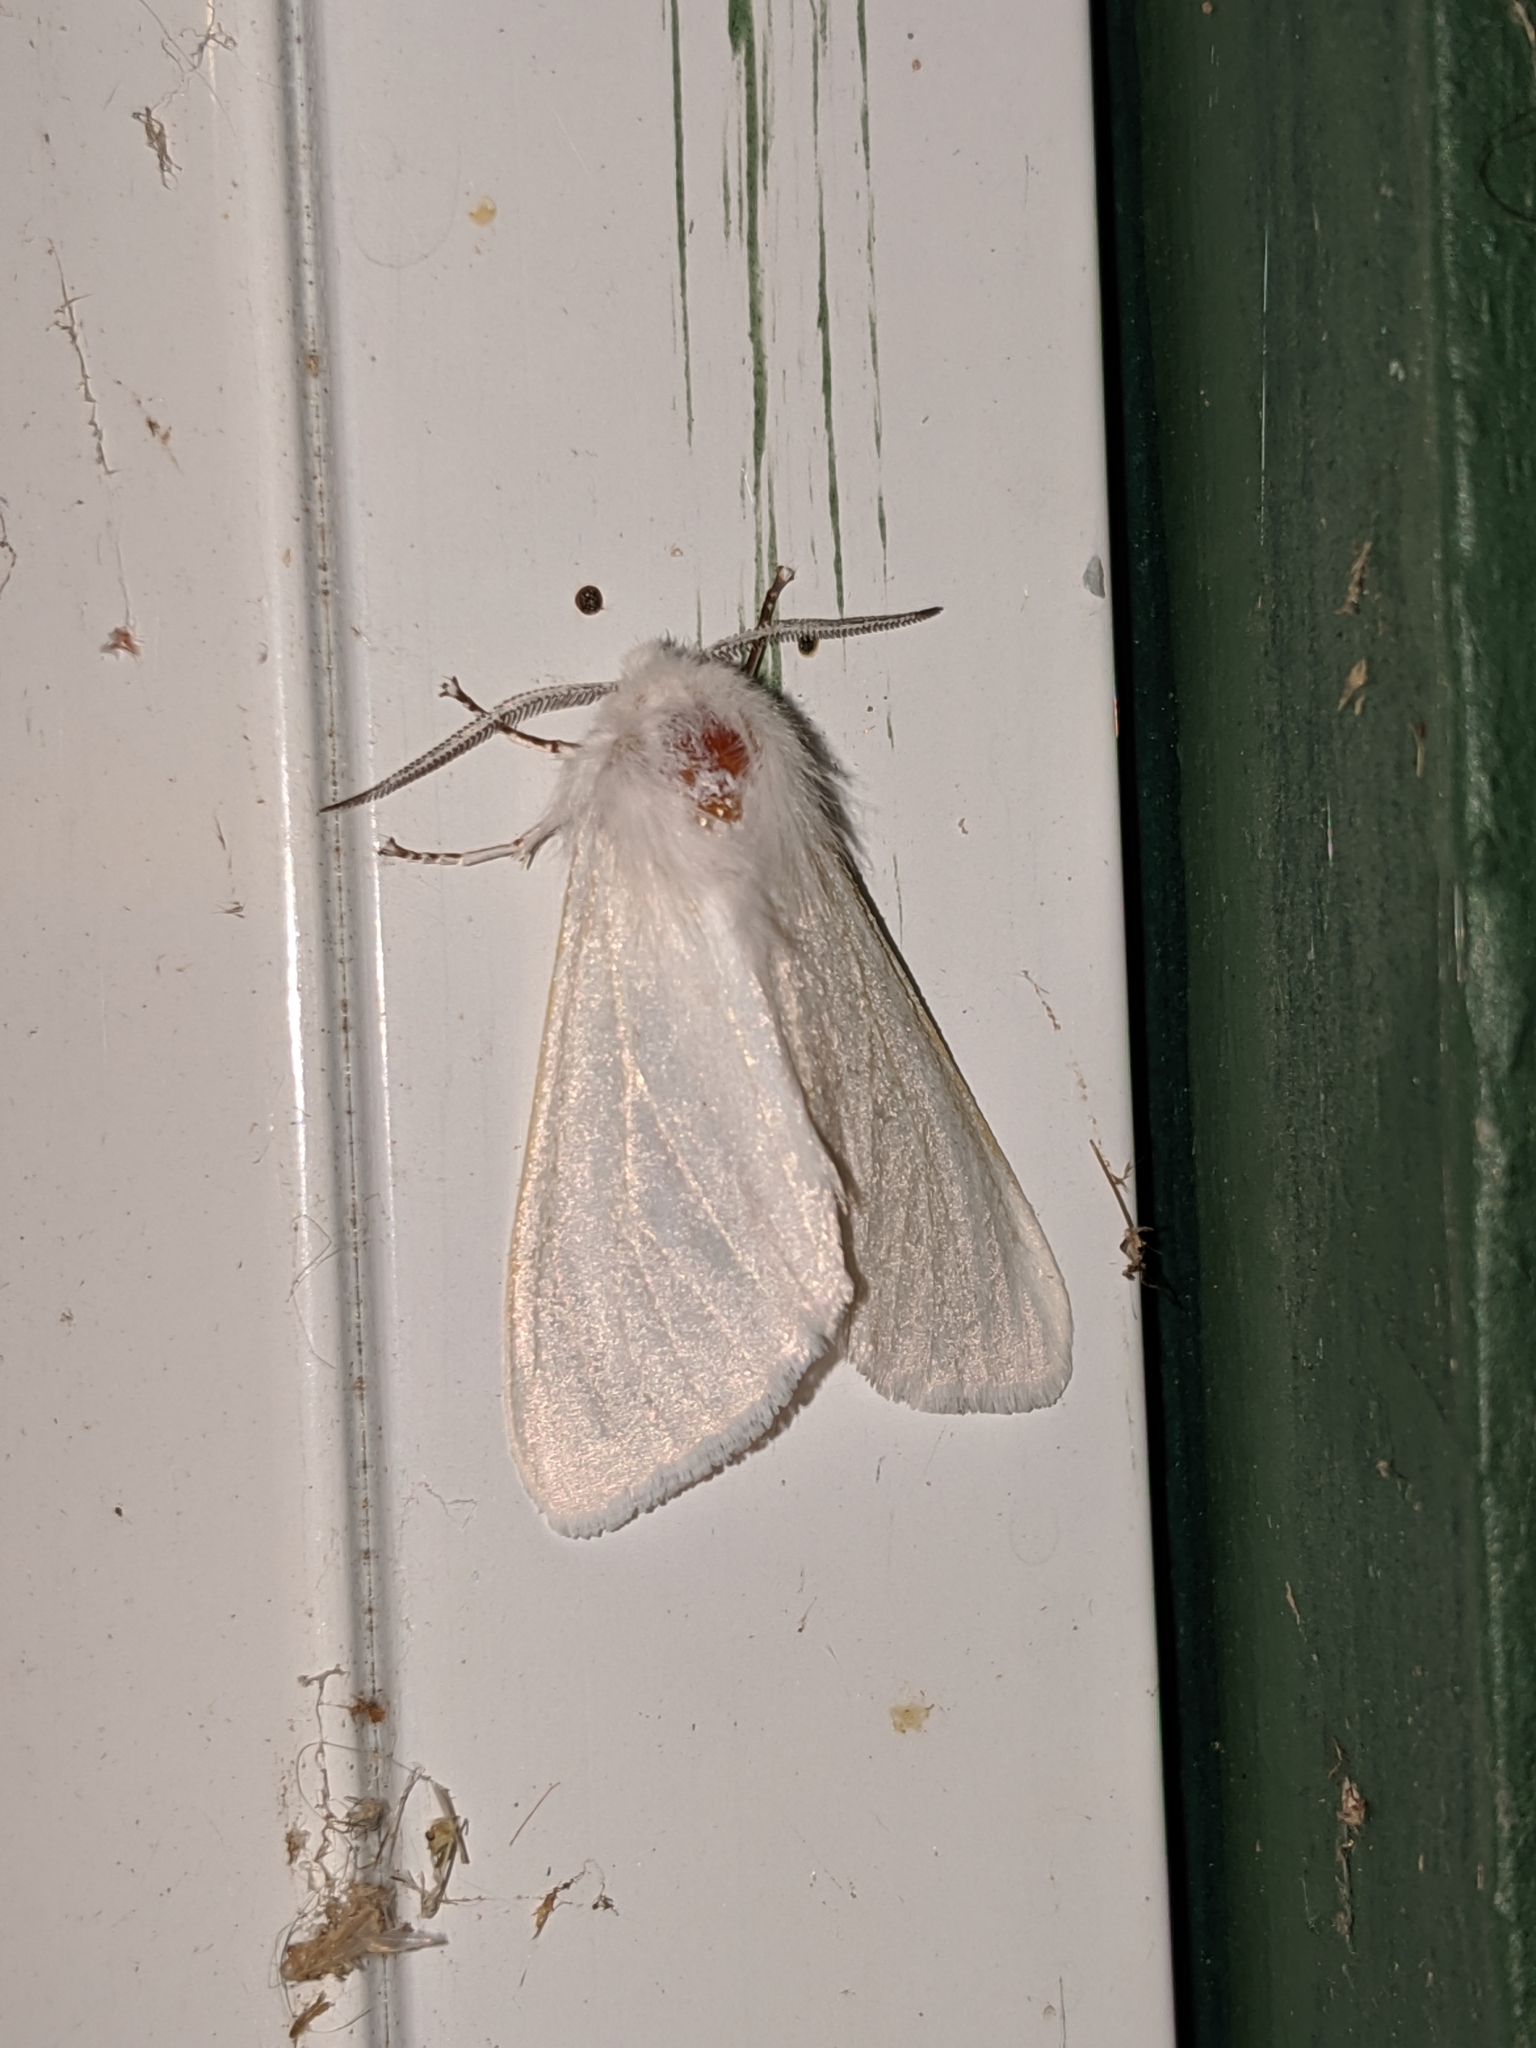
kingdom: Animalia
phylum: Arthropoda
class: Insecta
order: Lepidoptera
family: Erebidae
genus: Hyphantria
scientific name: Hyphantria cunea
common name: American white moth
